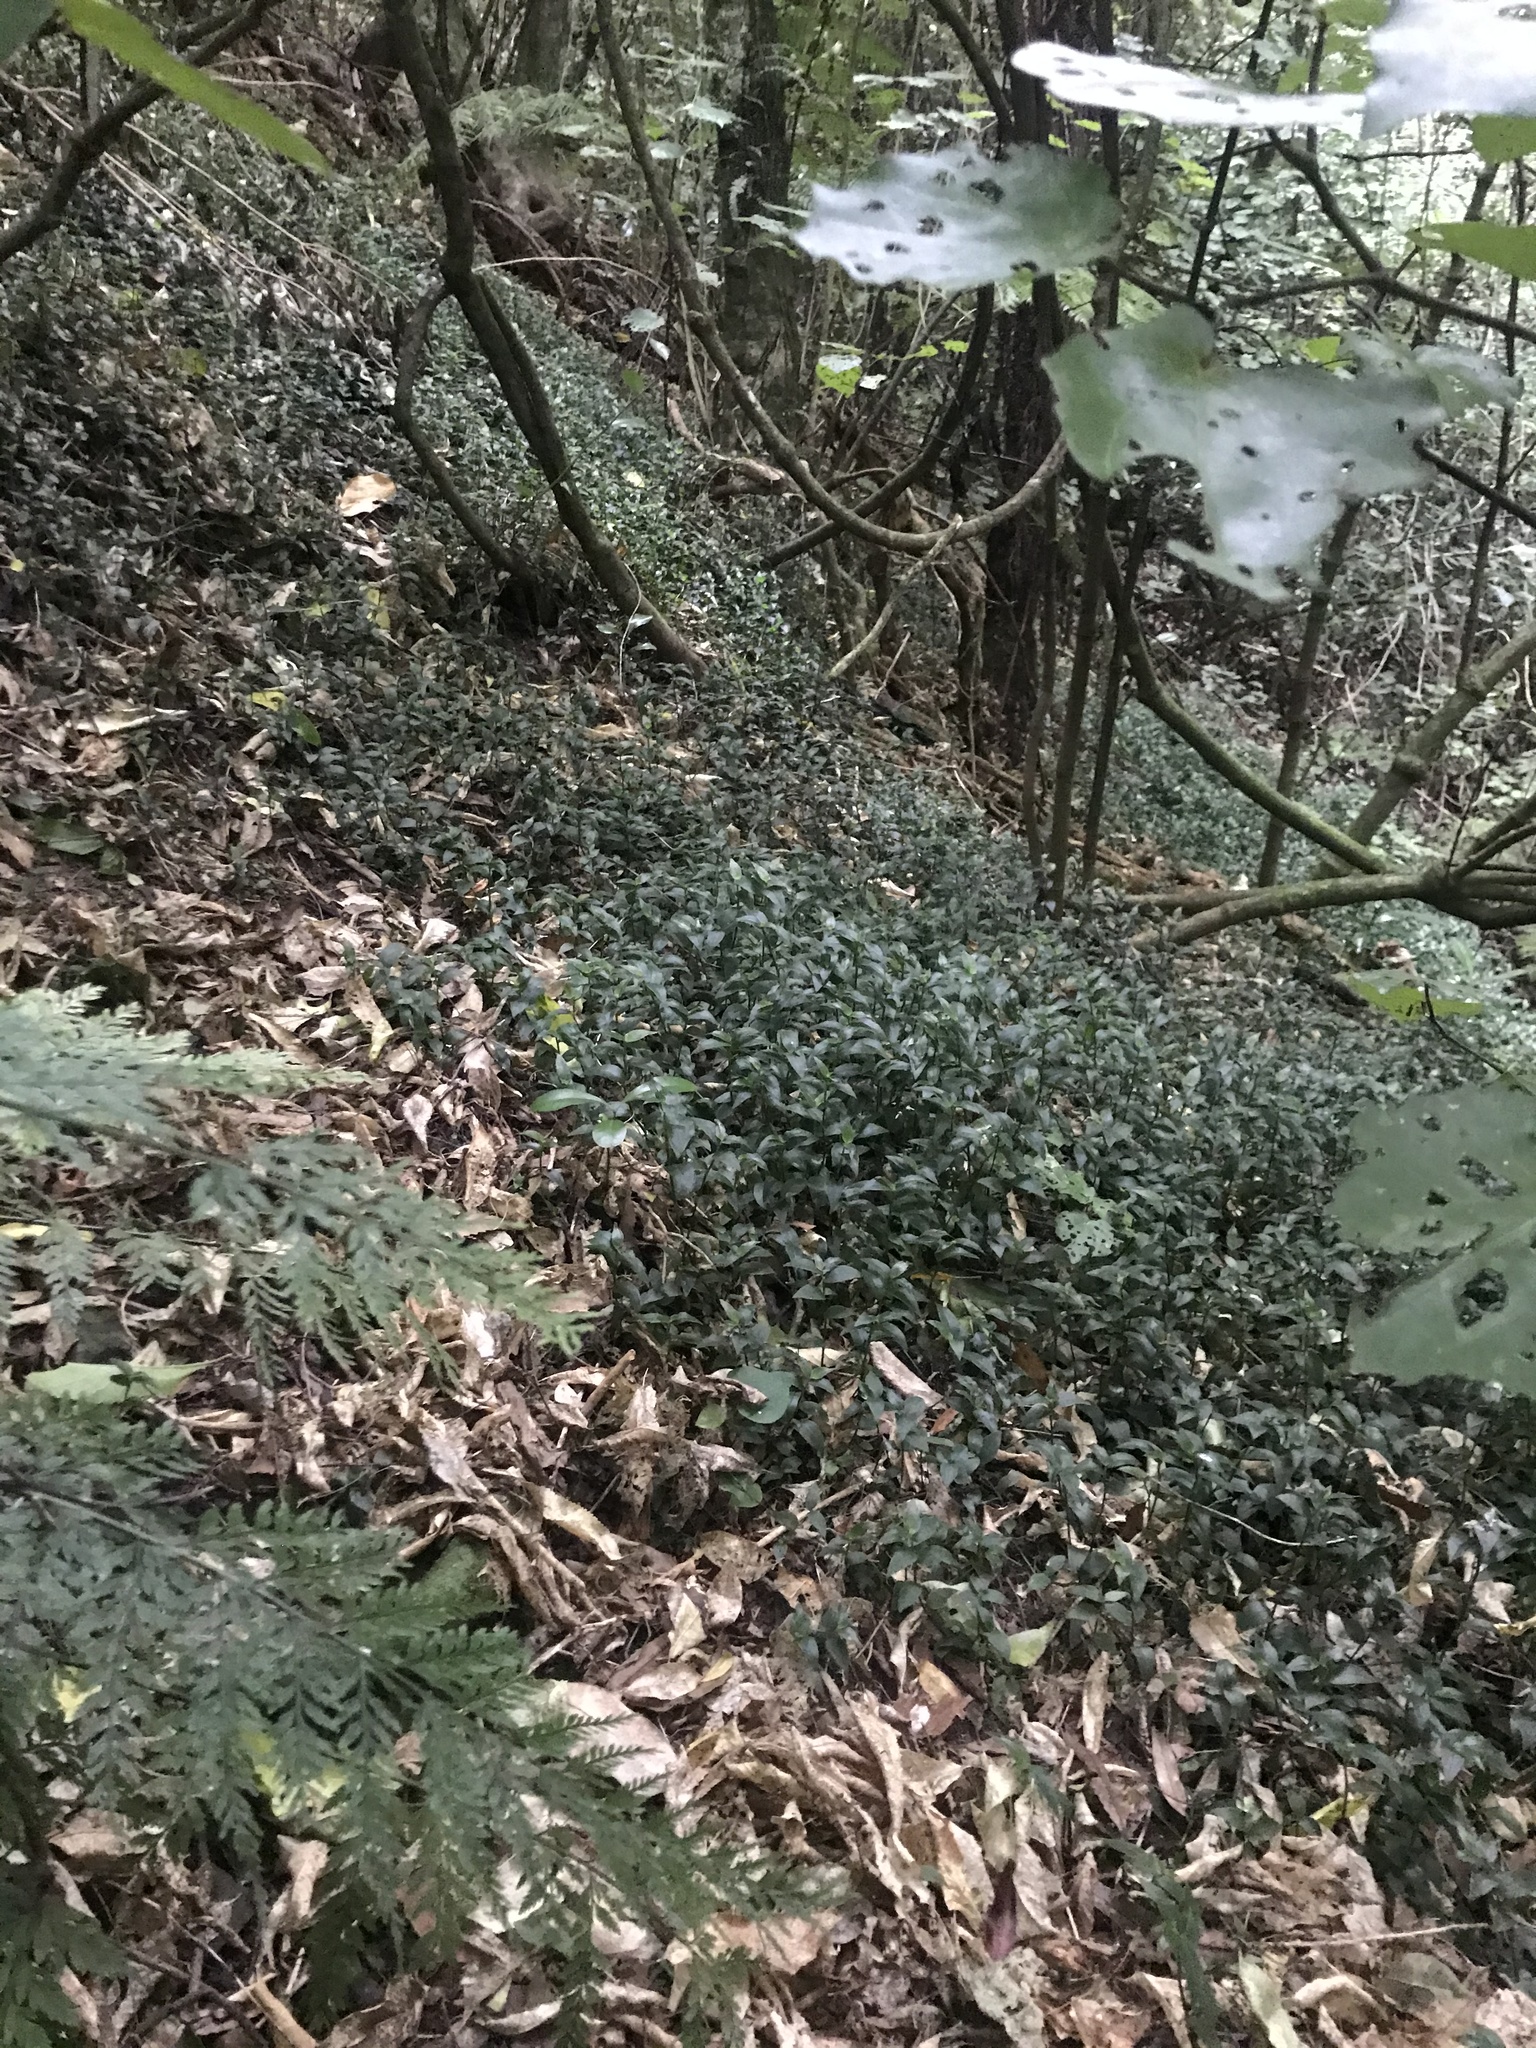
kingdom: Plantae
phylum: Tracheophyta
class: Liliopsida
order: Commelinales
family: Commelinaceae
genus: Tradescantia
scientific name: Tradescantia fluminensis
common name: Wandering-jew
